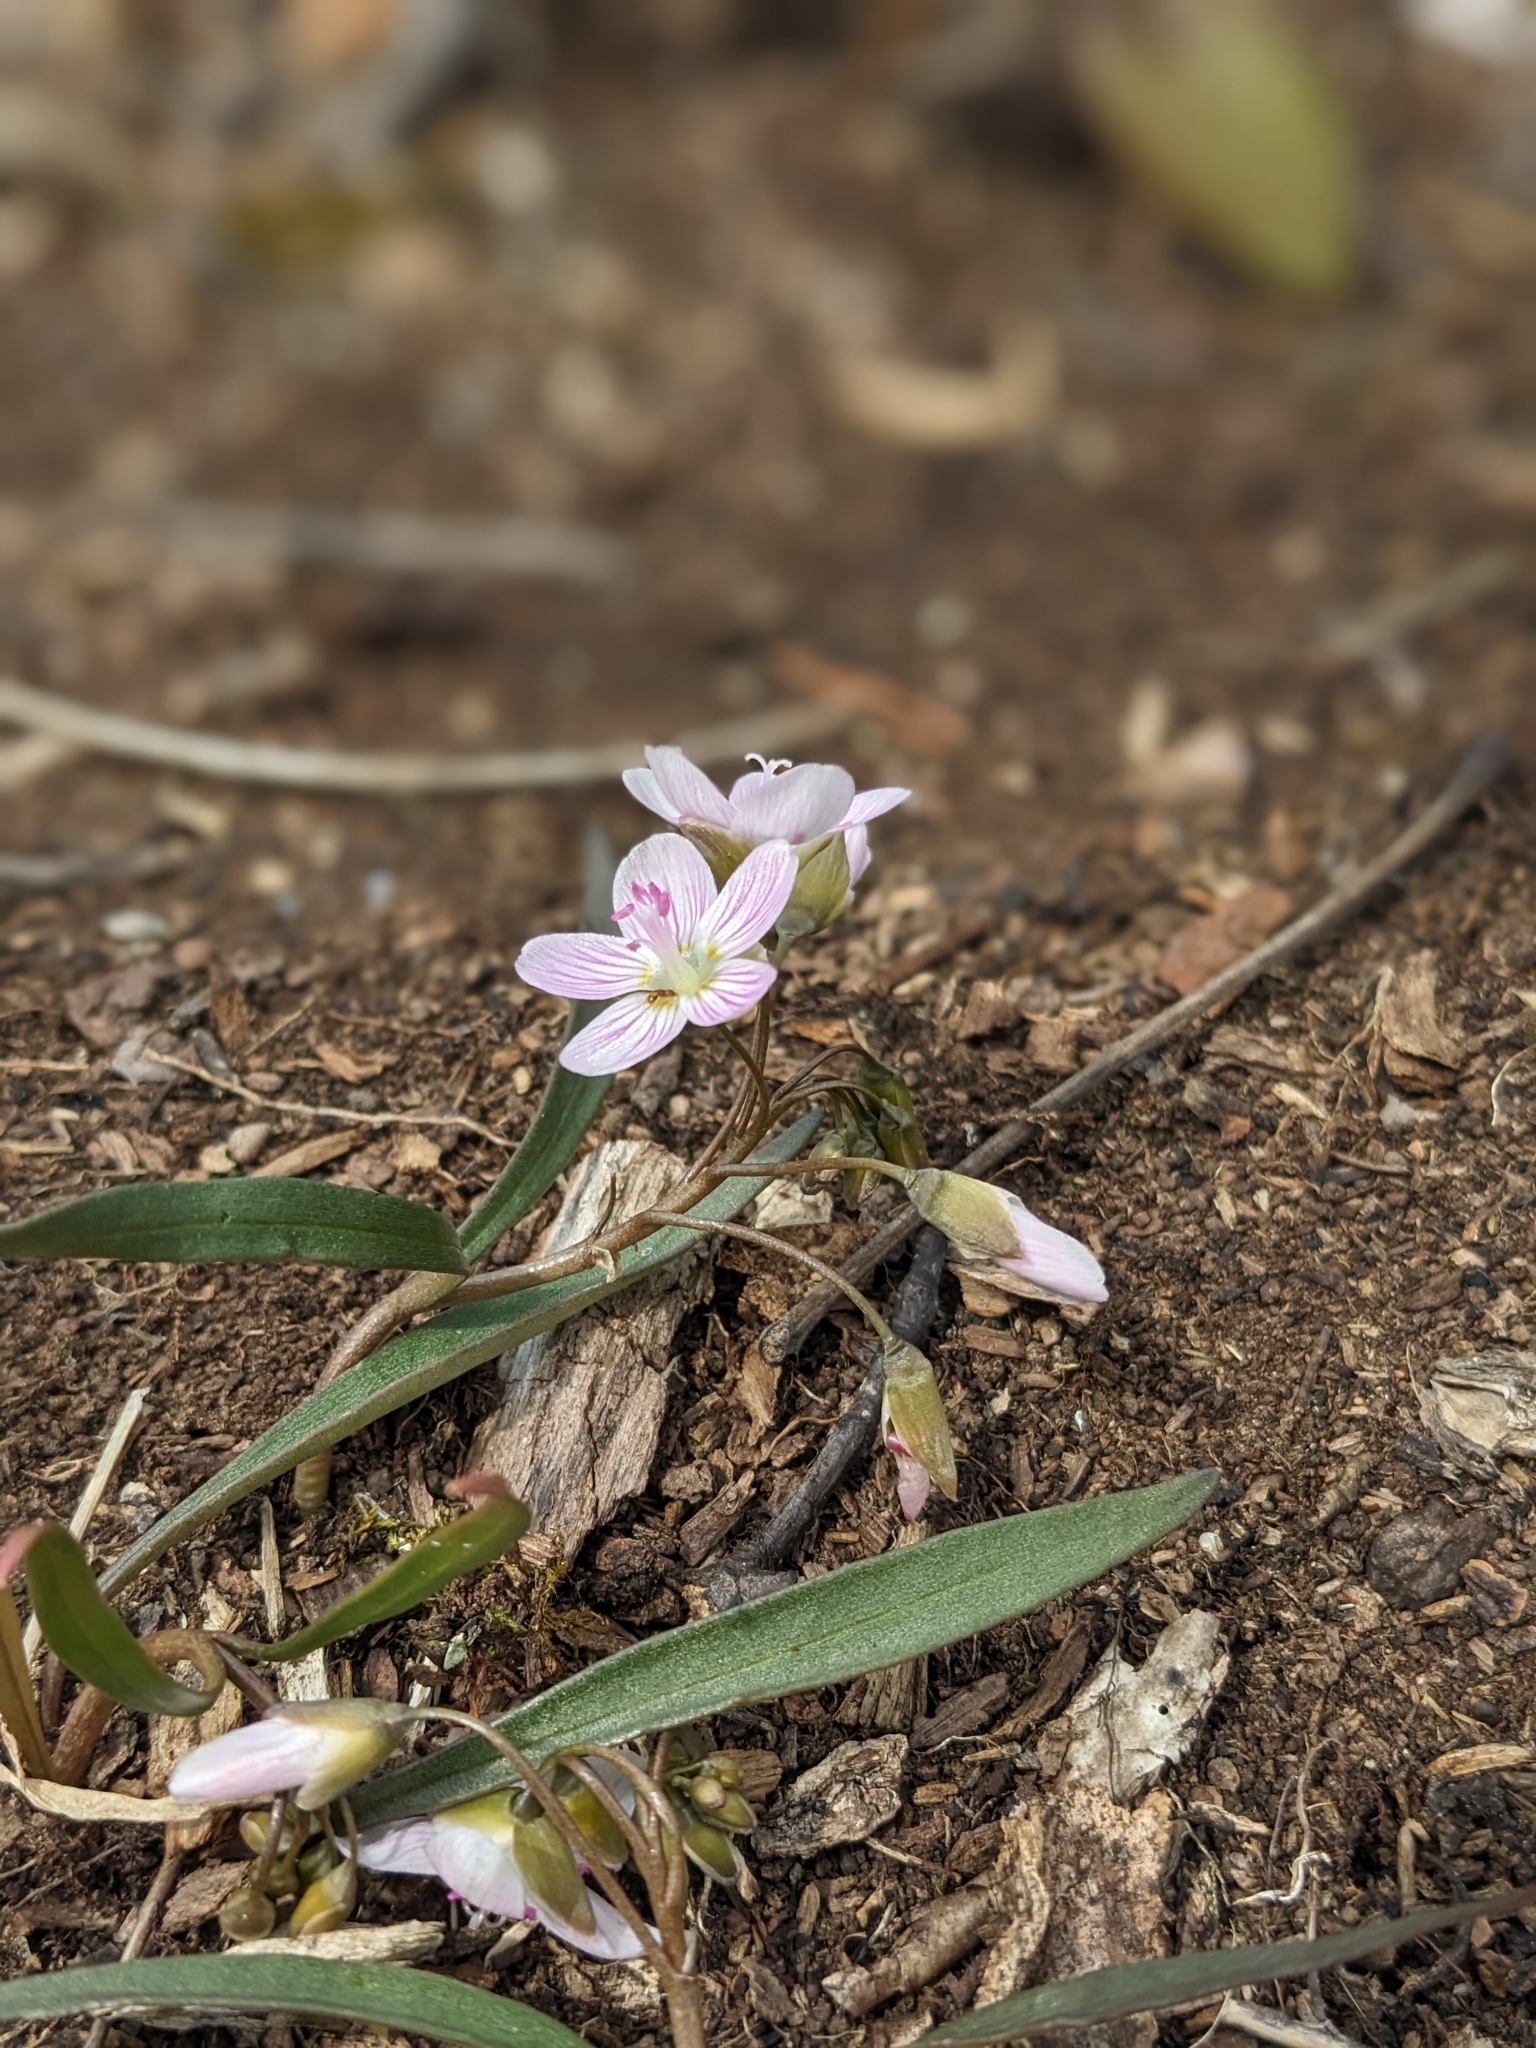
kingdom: Plantae
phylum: Tracheophyta
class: Magnoliopsida
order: Caryophyllales
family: Montiaceae
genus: Claytonia
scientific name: Claytonia virginica
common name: Virginia springbeauty
